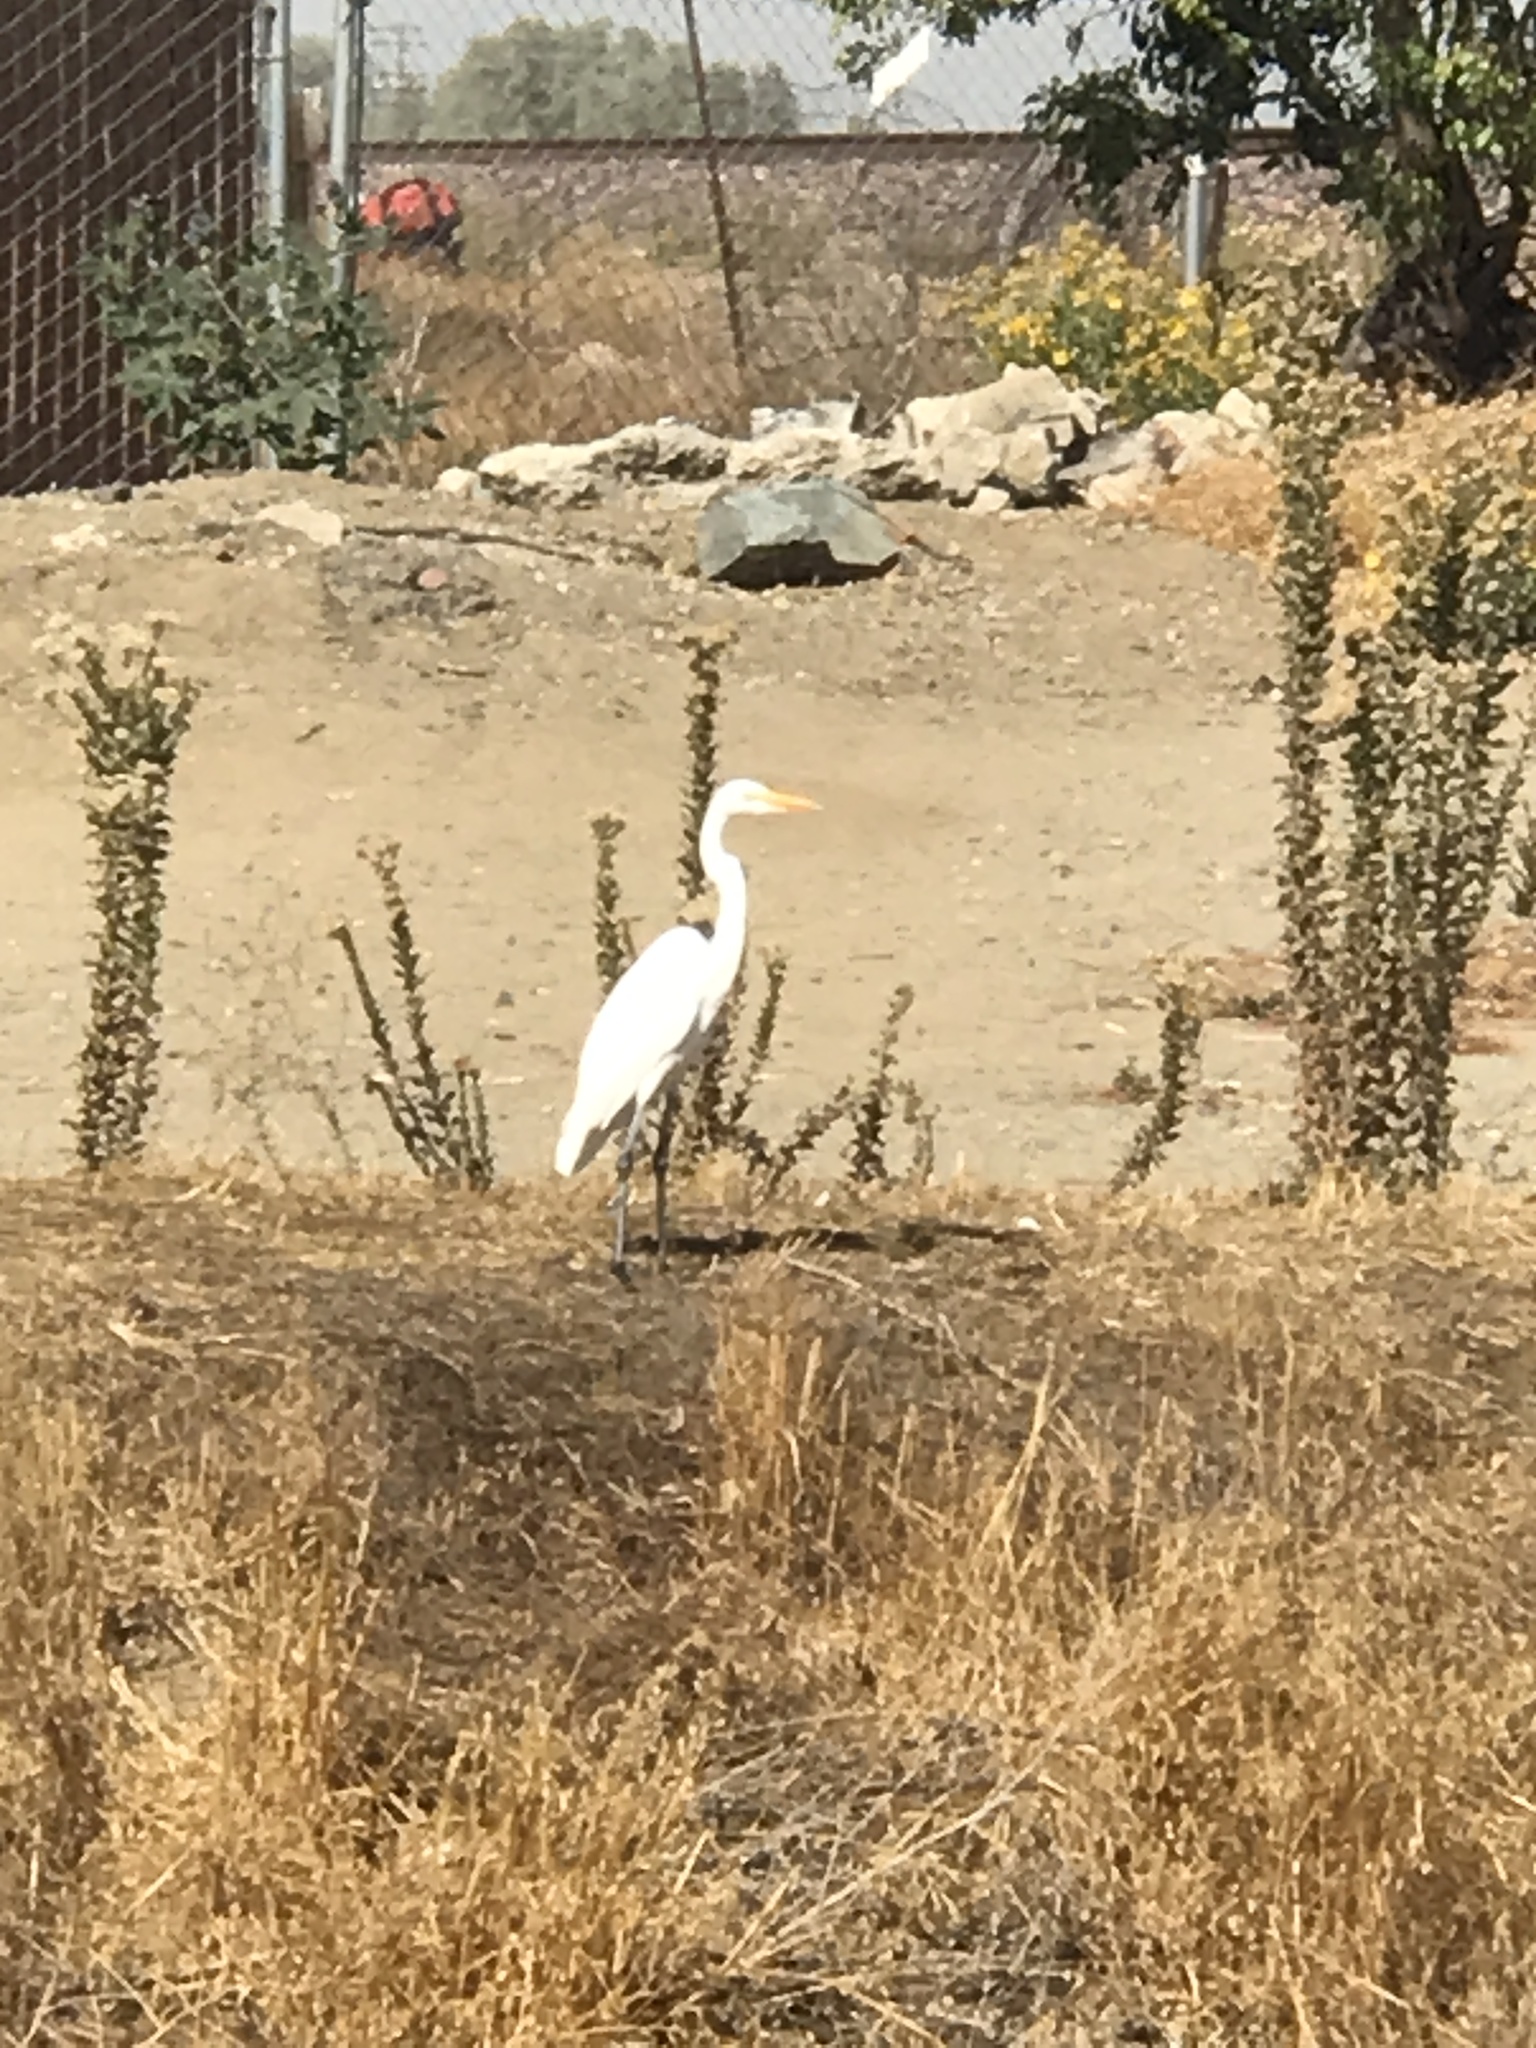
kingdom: Animalia
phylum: Chordata
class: Aves
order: Pelecaniformes
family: Ardeidae
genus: Ardea
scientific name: Ardea alba
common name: Great egret
